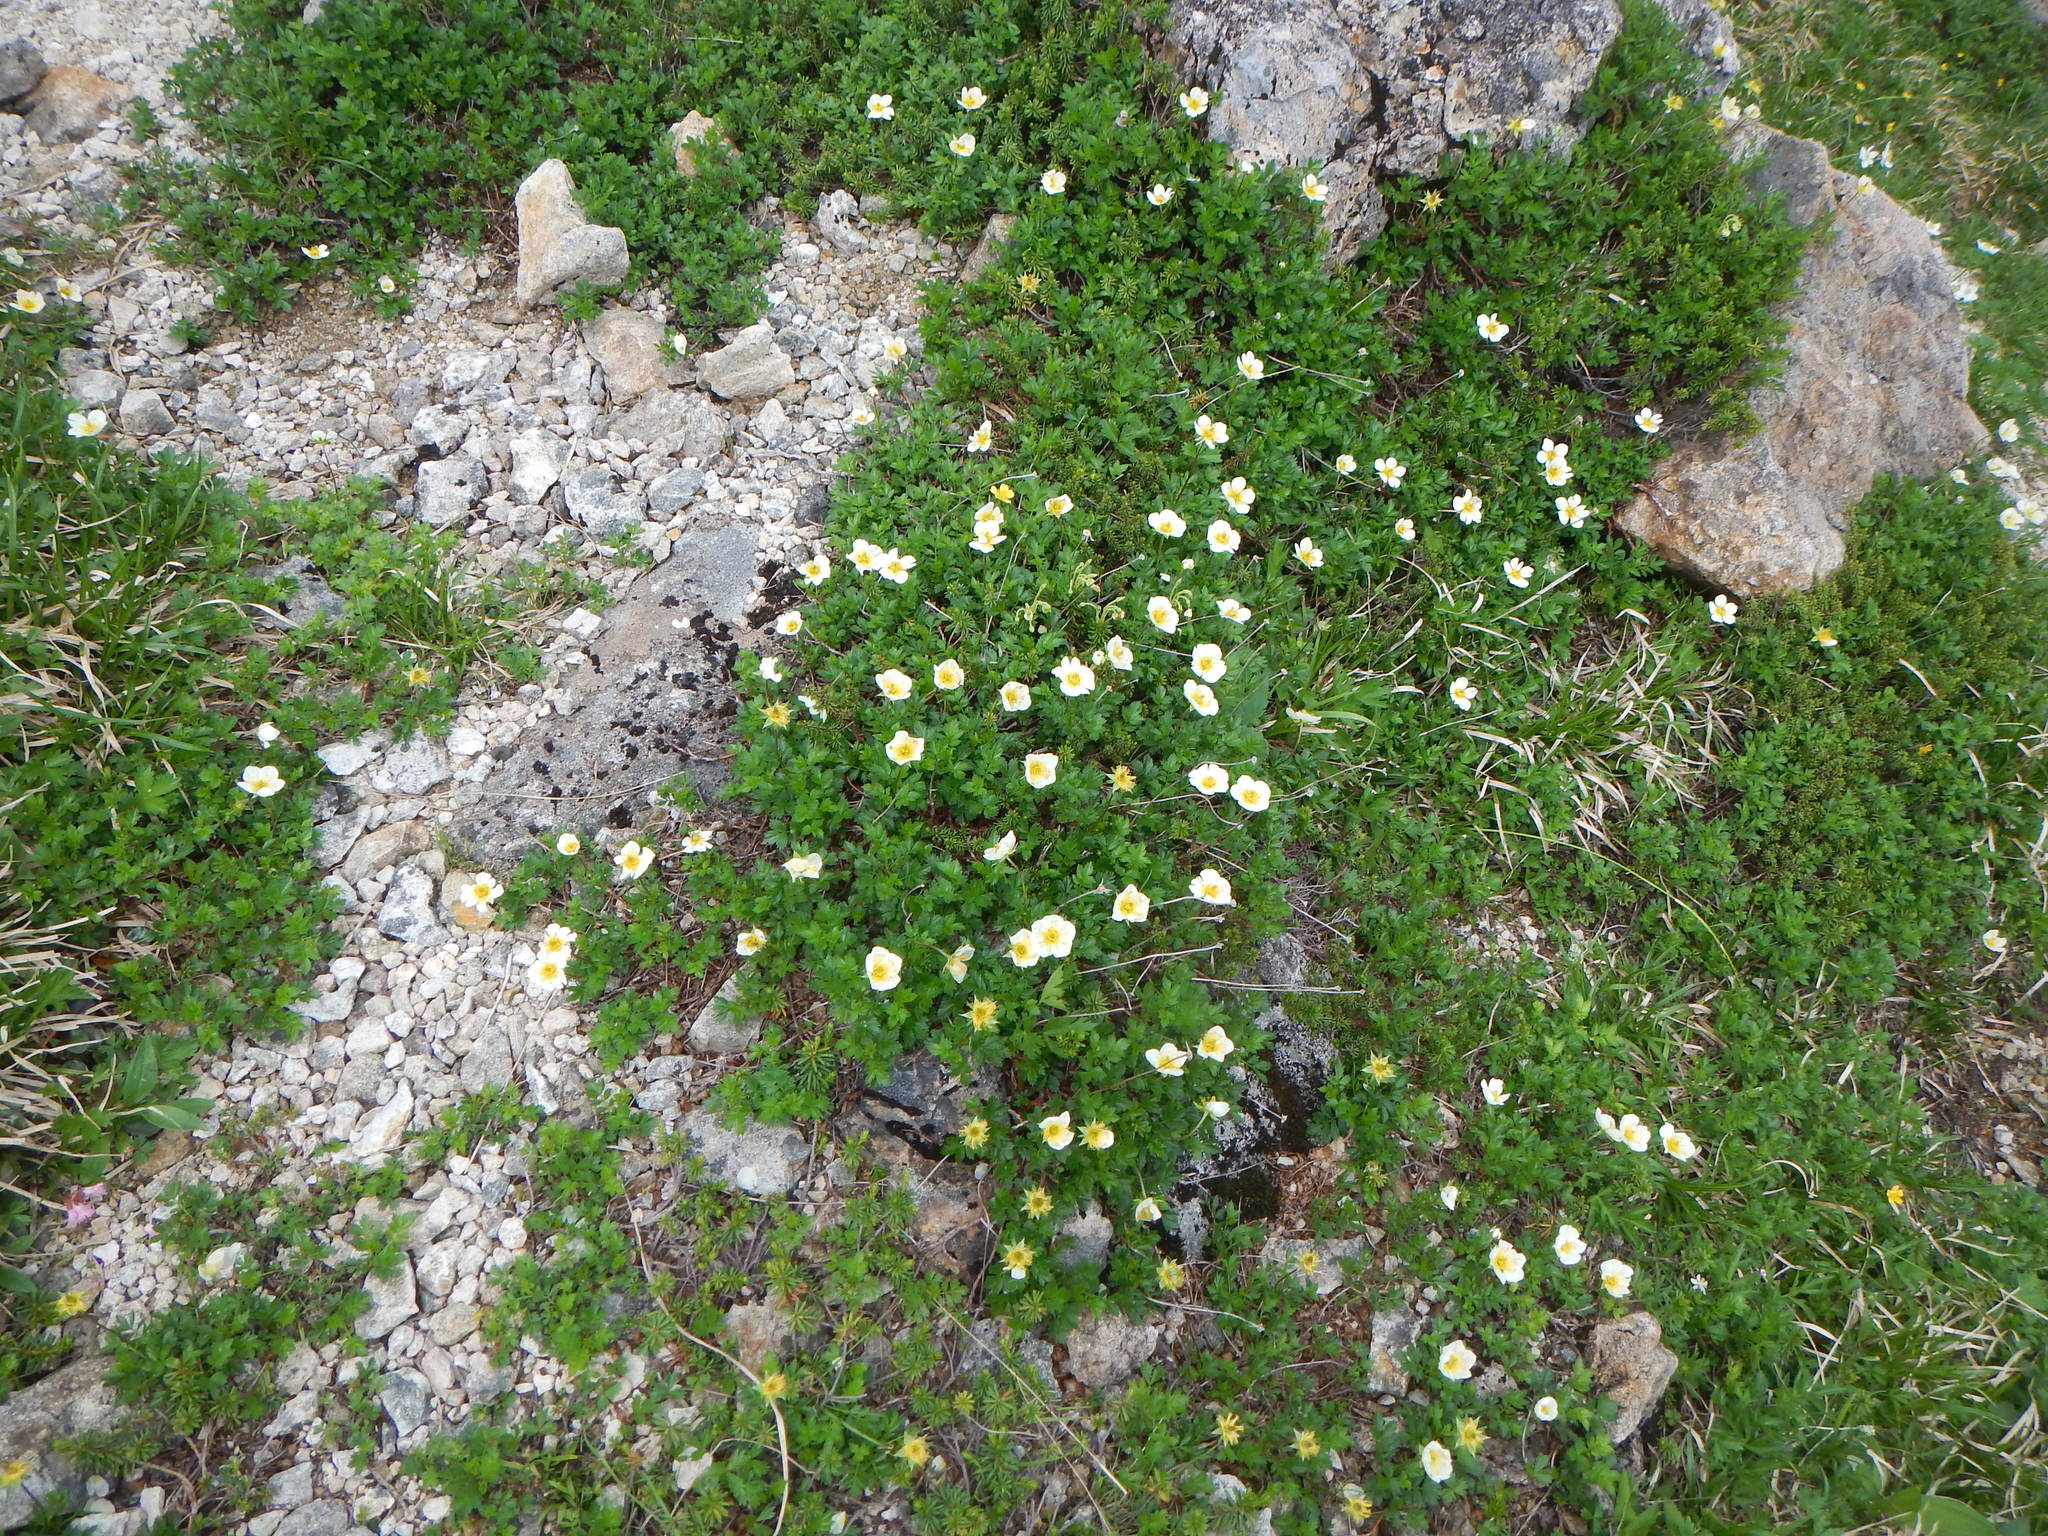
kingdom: Plantae
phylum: Tracheophyta
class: Magnoliopsida
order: Rosales
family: Rosaceae
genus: Geum
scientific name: Geum pentapetalum
